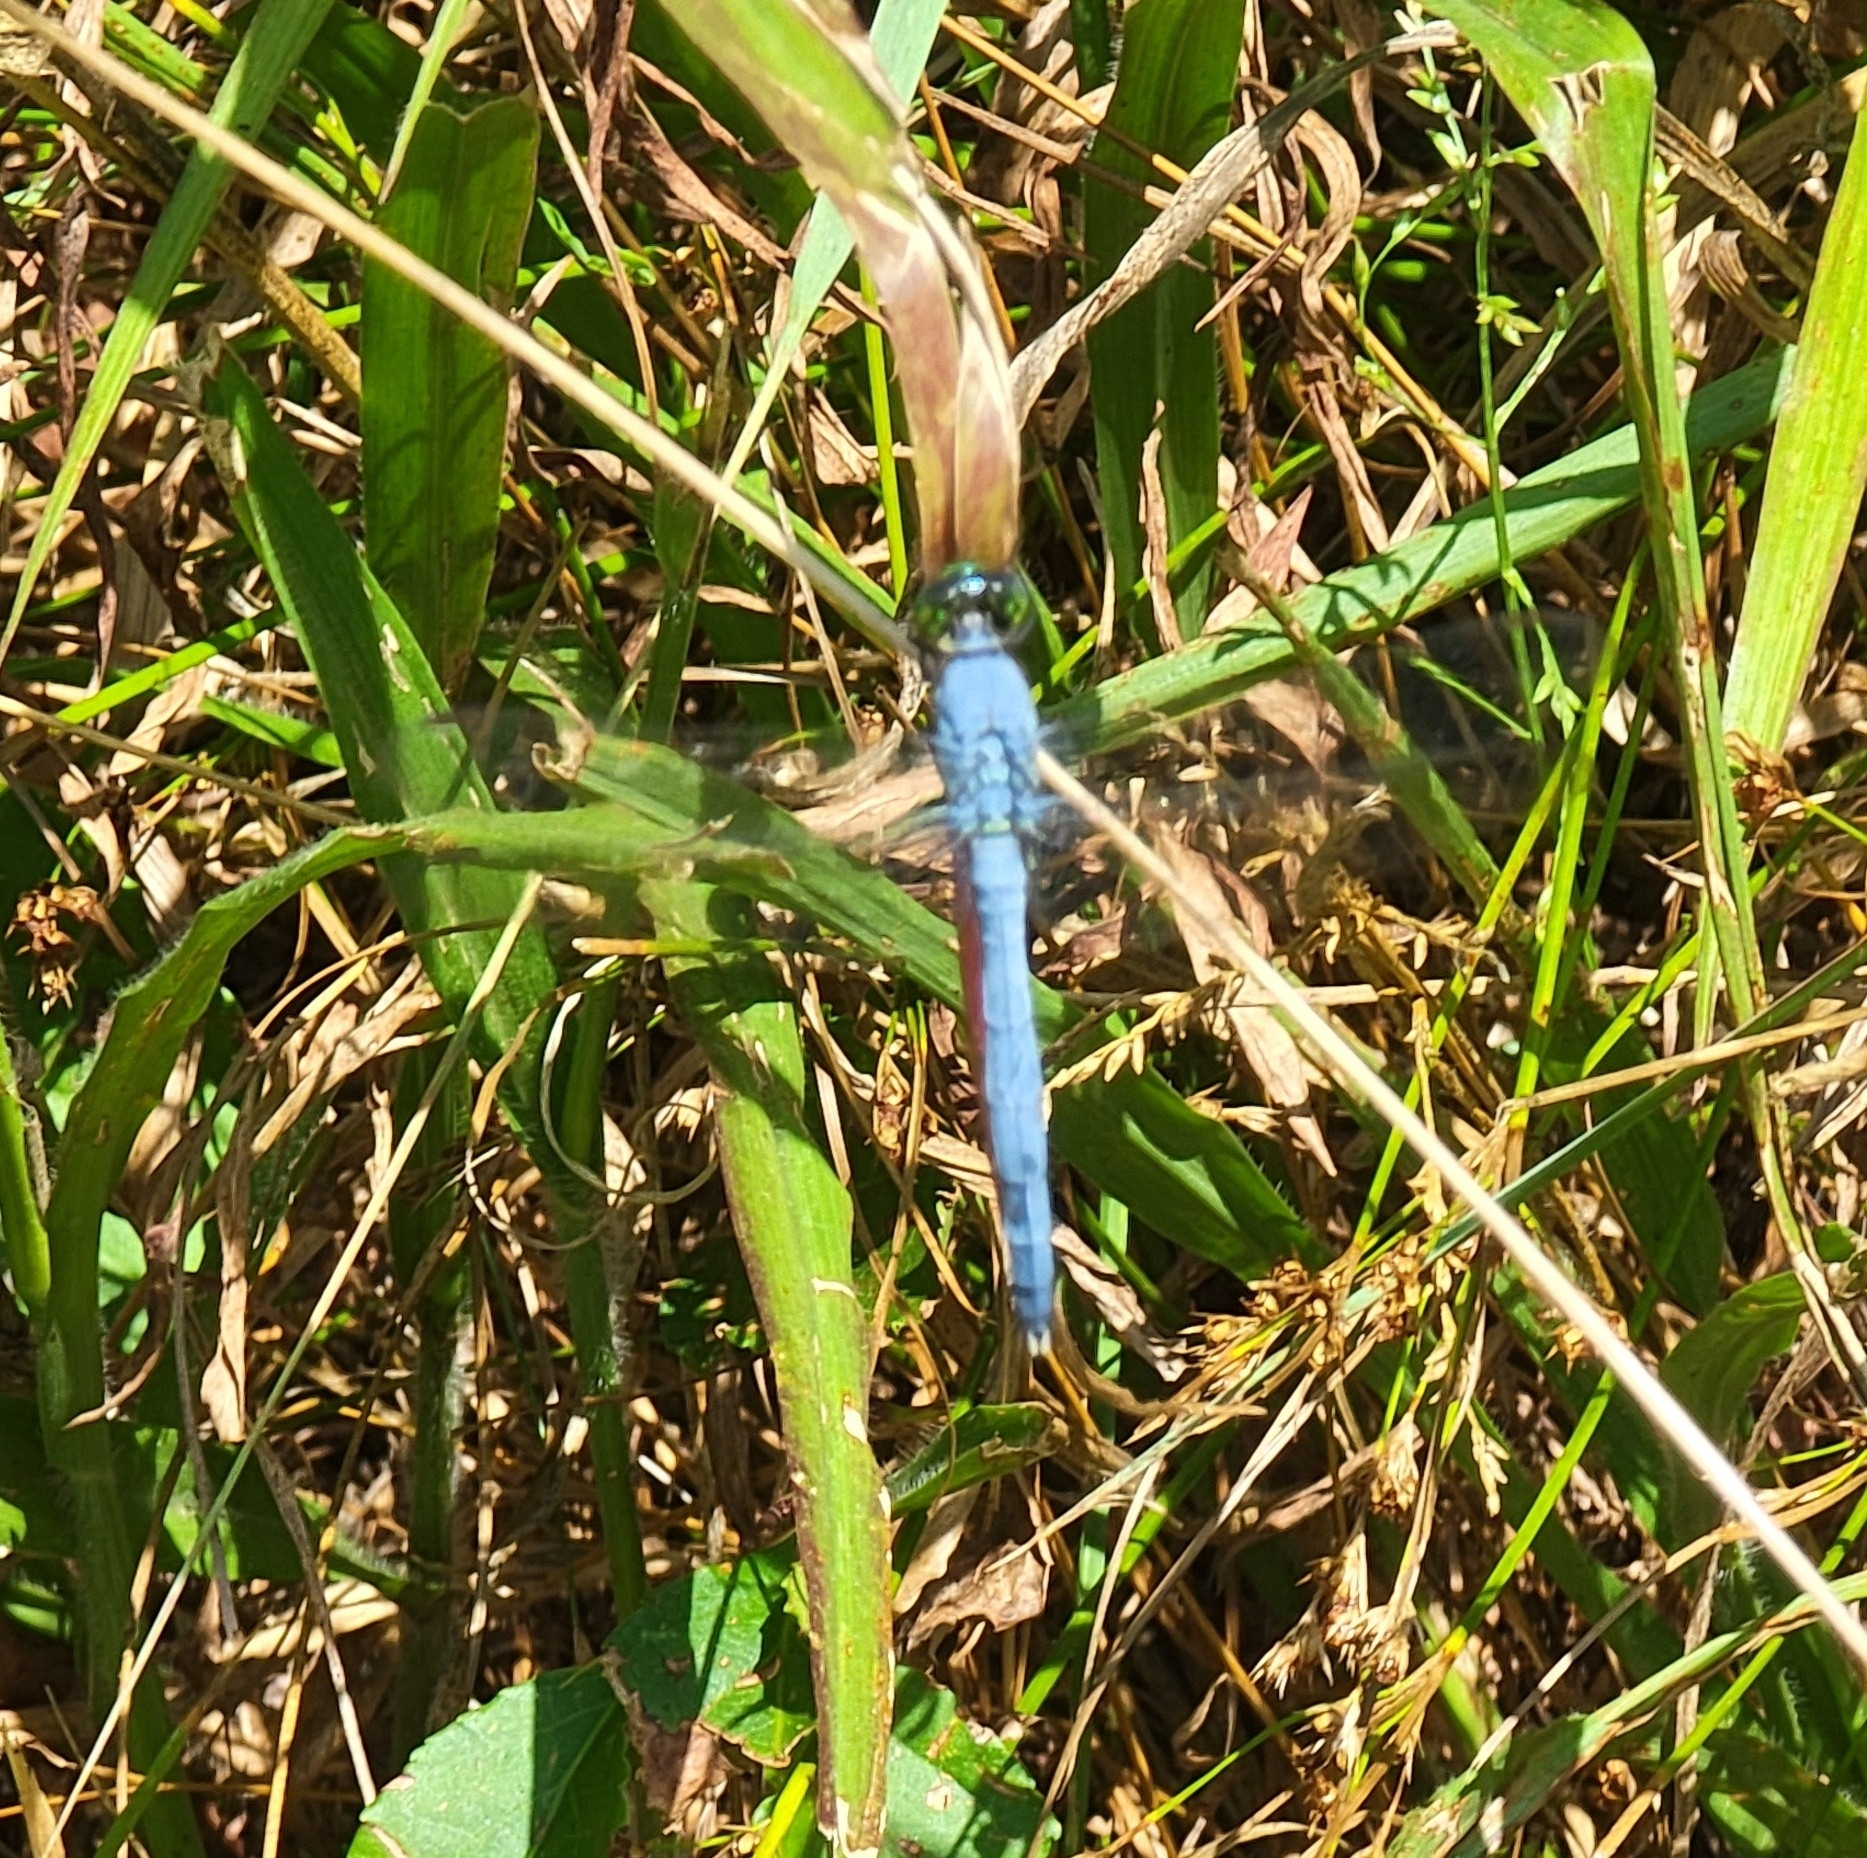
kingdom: Animalia
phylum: Arthropoda
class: Insecta
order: Odonata
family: Libellulidae
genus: Erythemis
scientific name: Erythemis simplicicollis
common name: Eastern pondhawk
